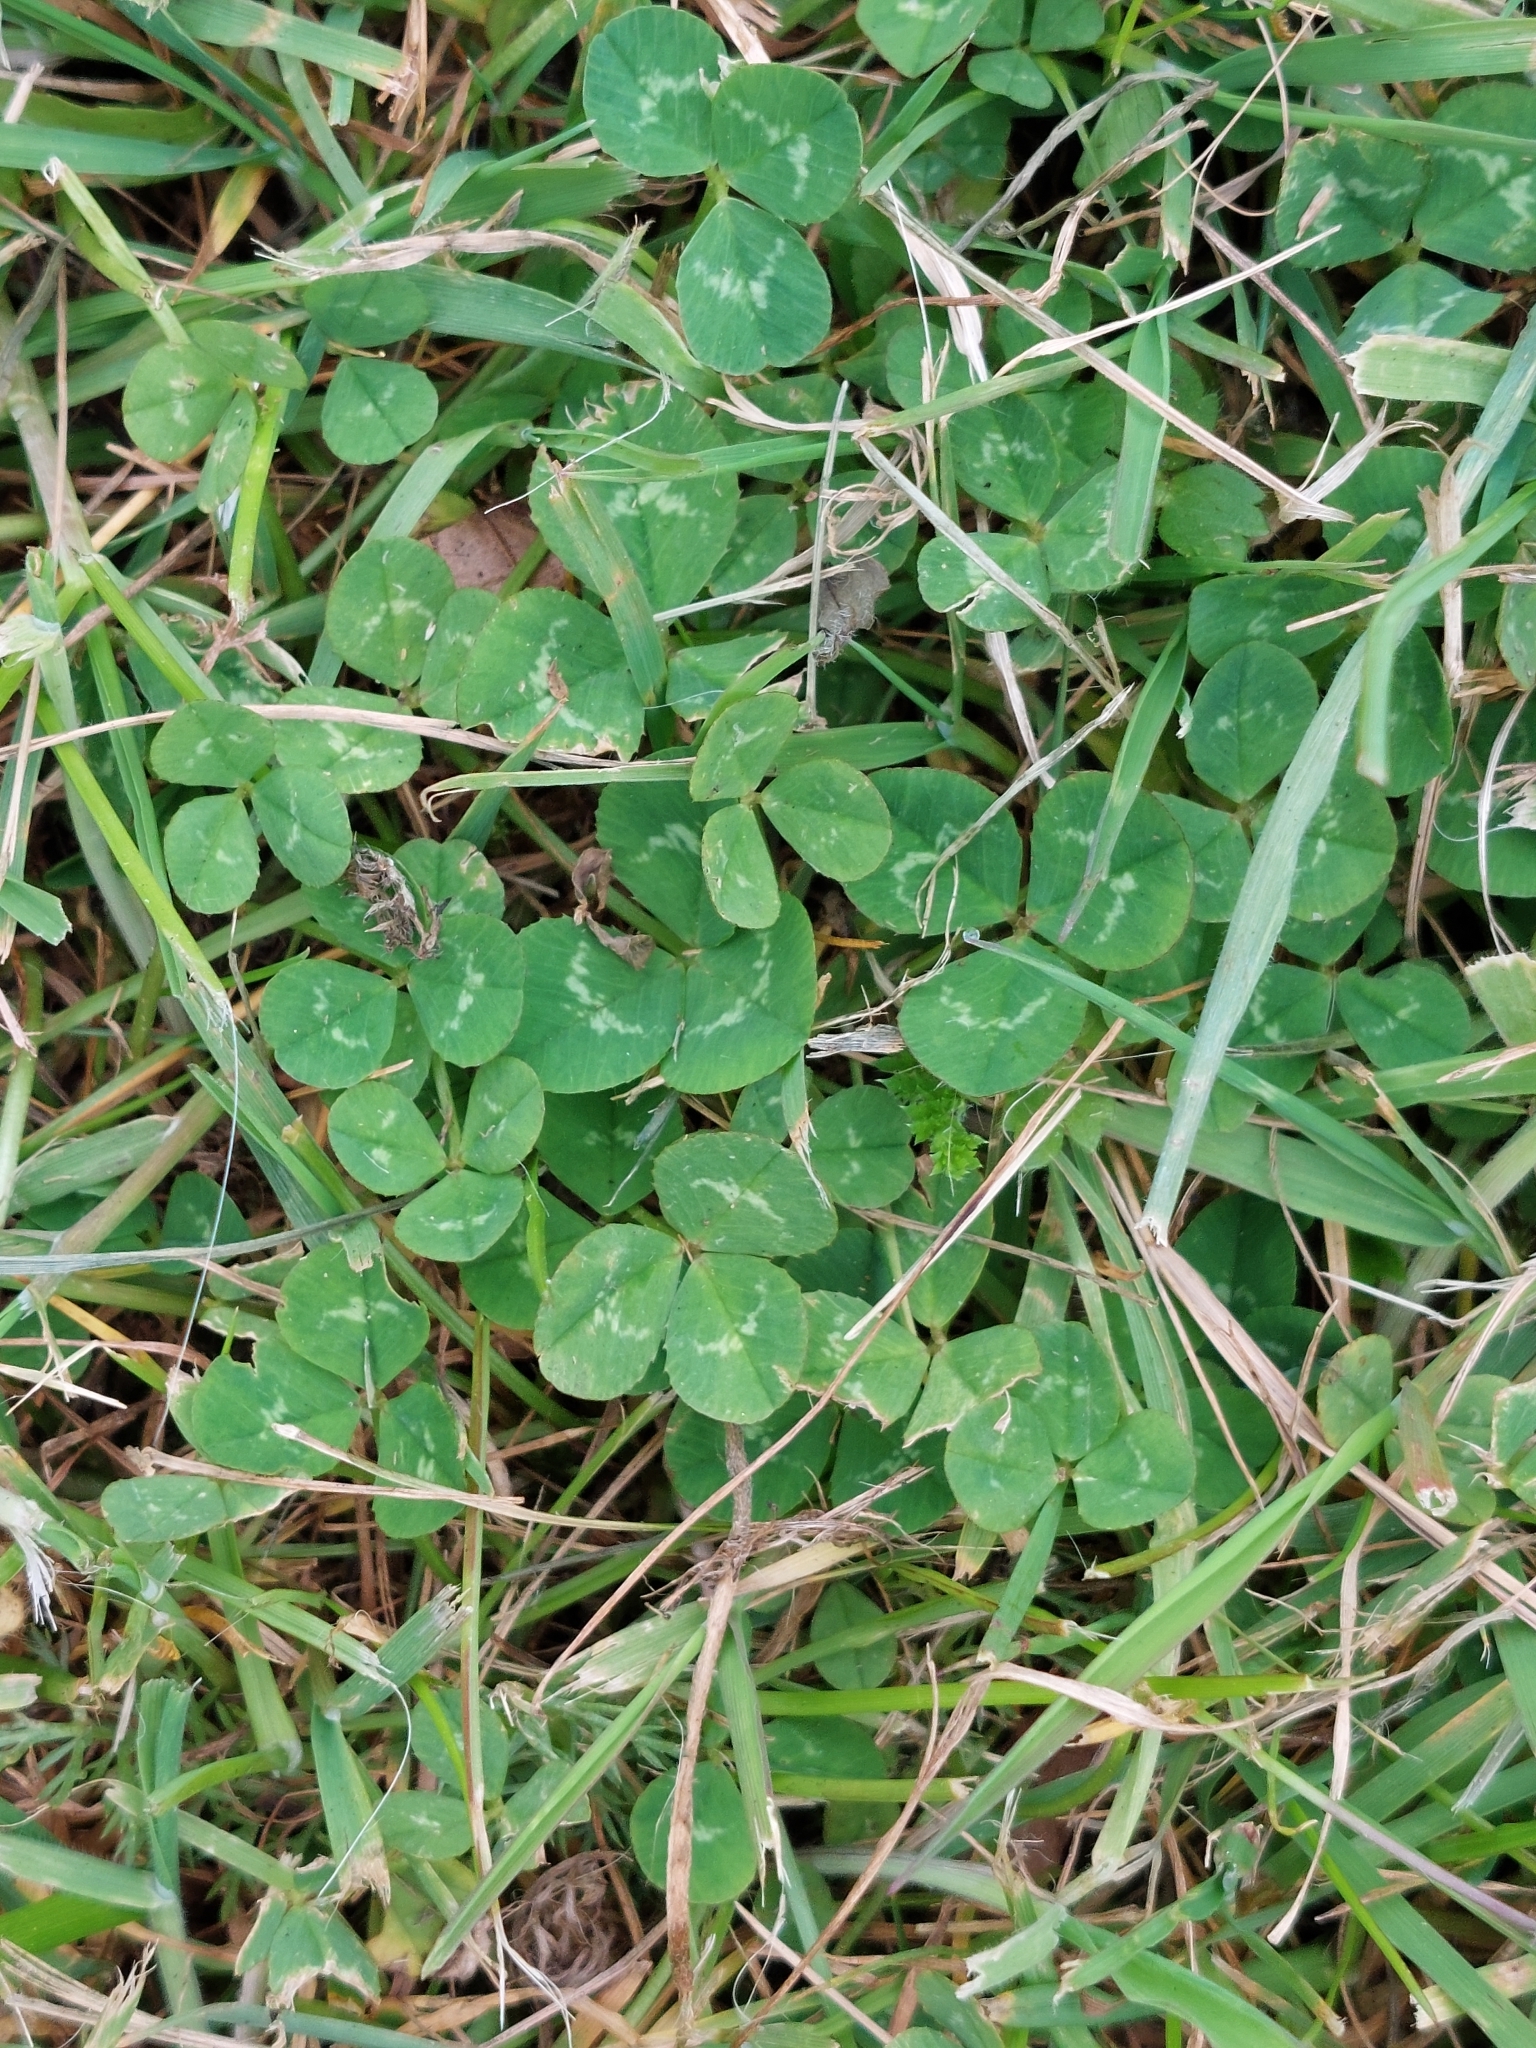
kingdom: Plantae
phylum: Tracheophyta
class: Magnoliopsida
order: Fabales
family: Fabaceae
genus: Trifolium
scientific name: Trifolium repens
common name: White clover
